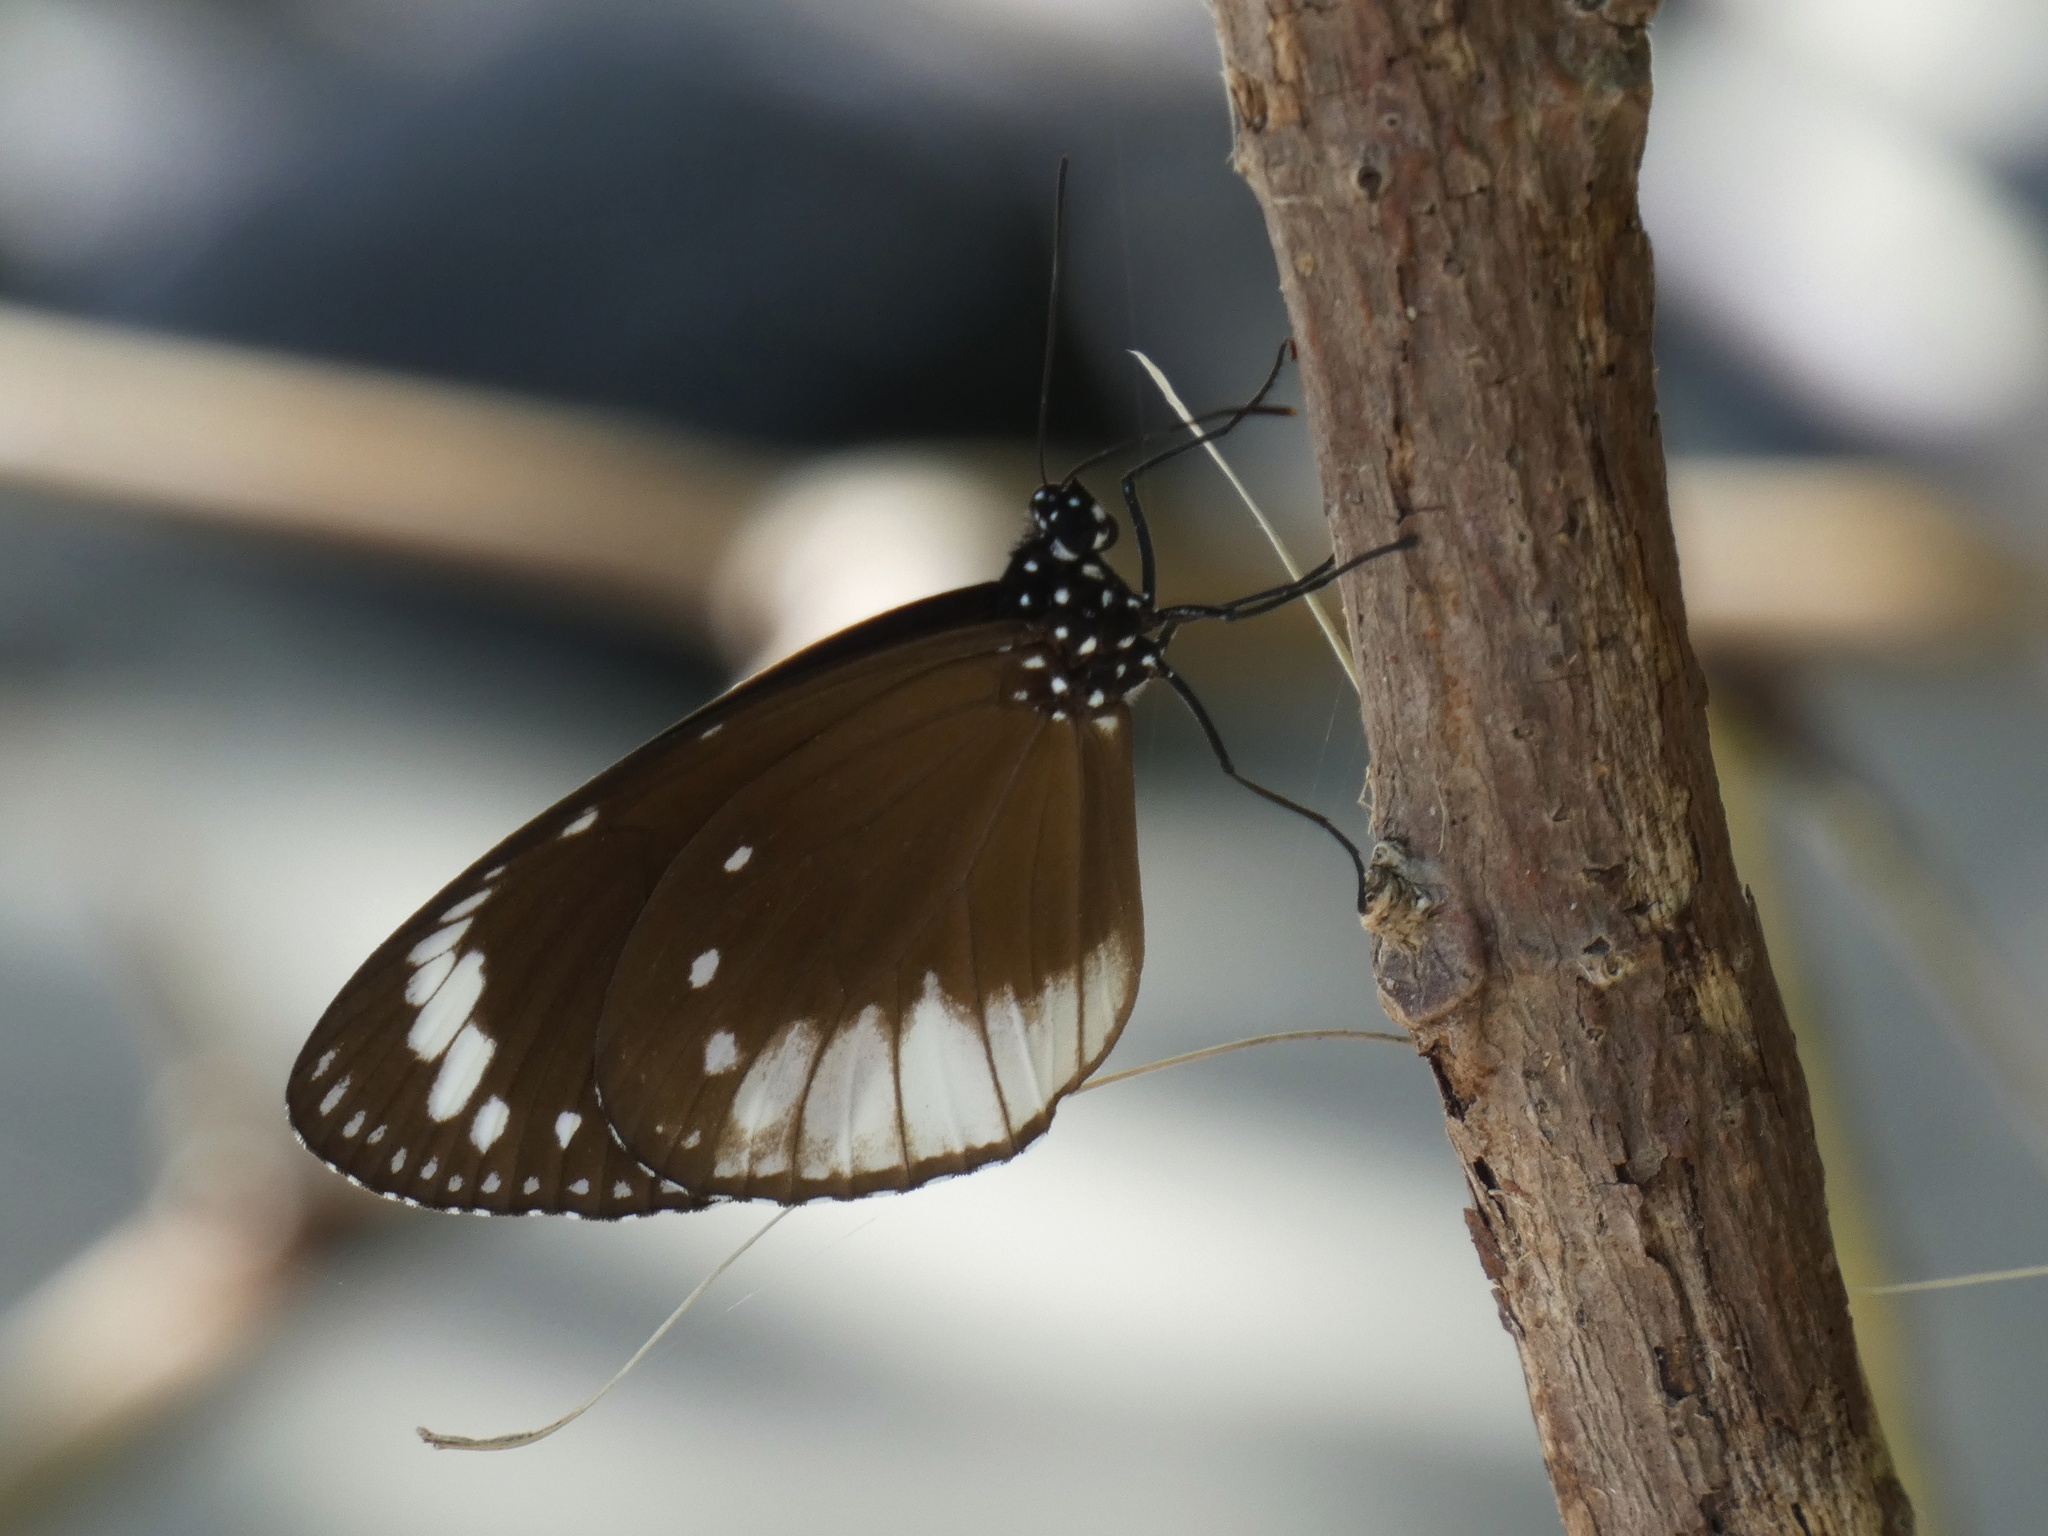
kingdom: Animalia
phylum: Arthropoda
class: Insecta
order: Lepidoptera
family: Nymphalidae
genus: Euploea
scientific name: Euploea darchia
